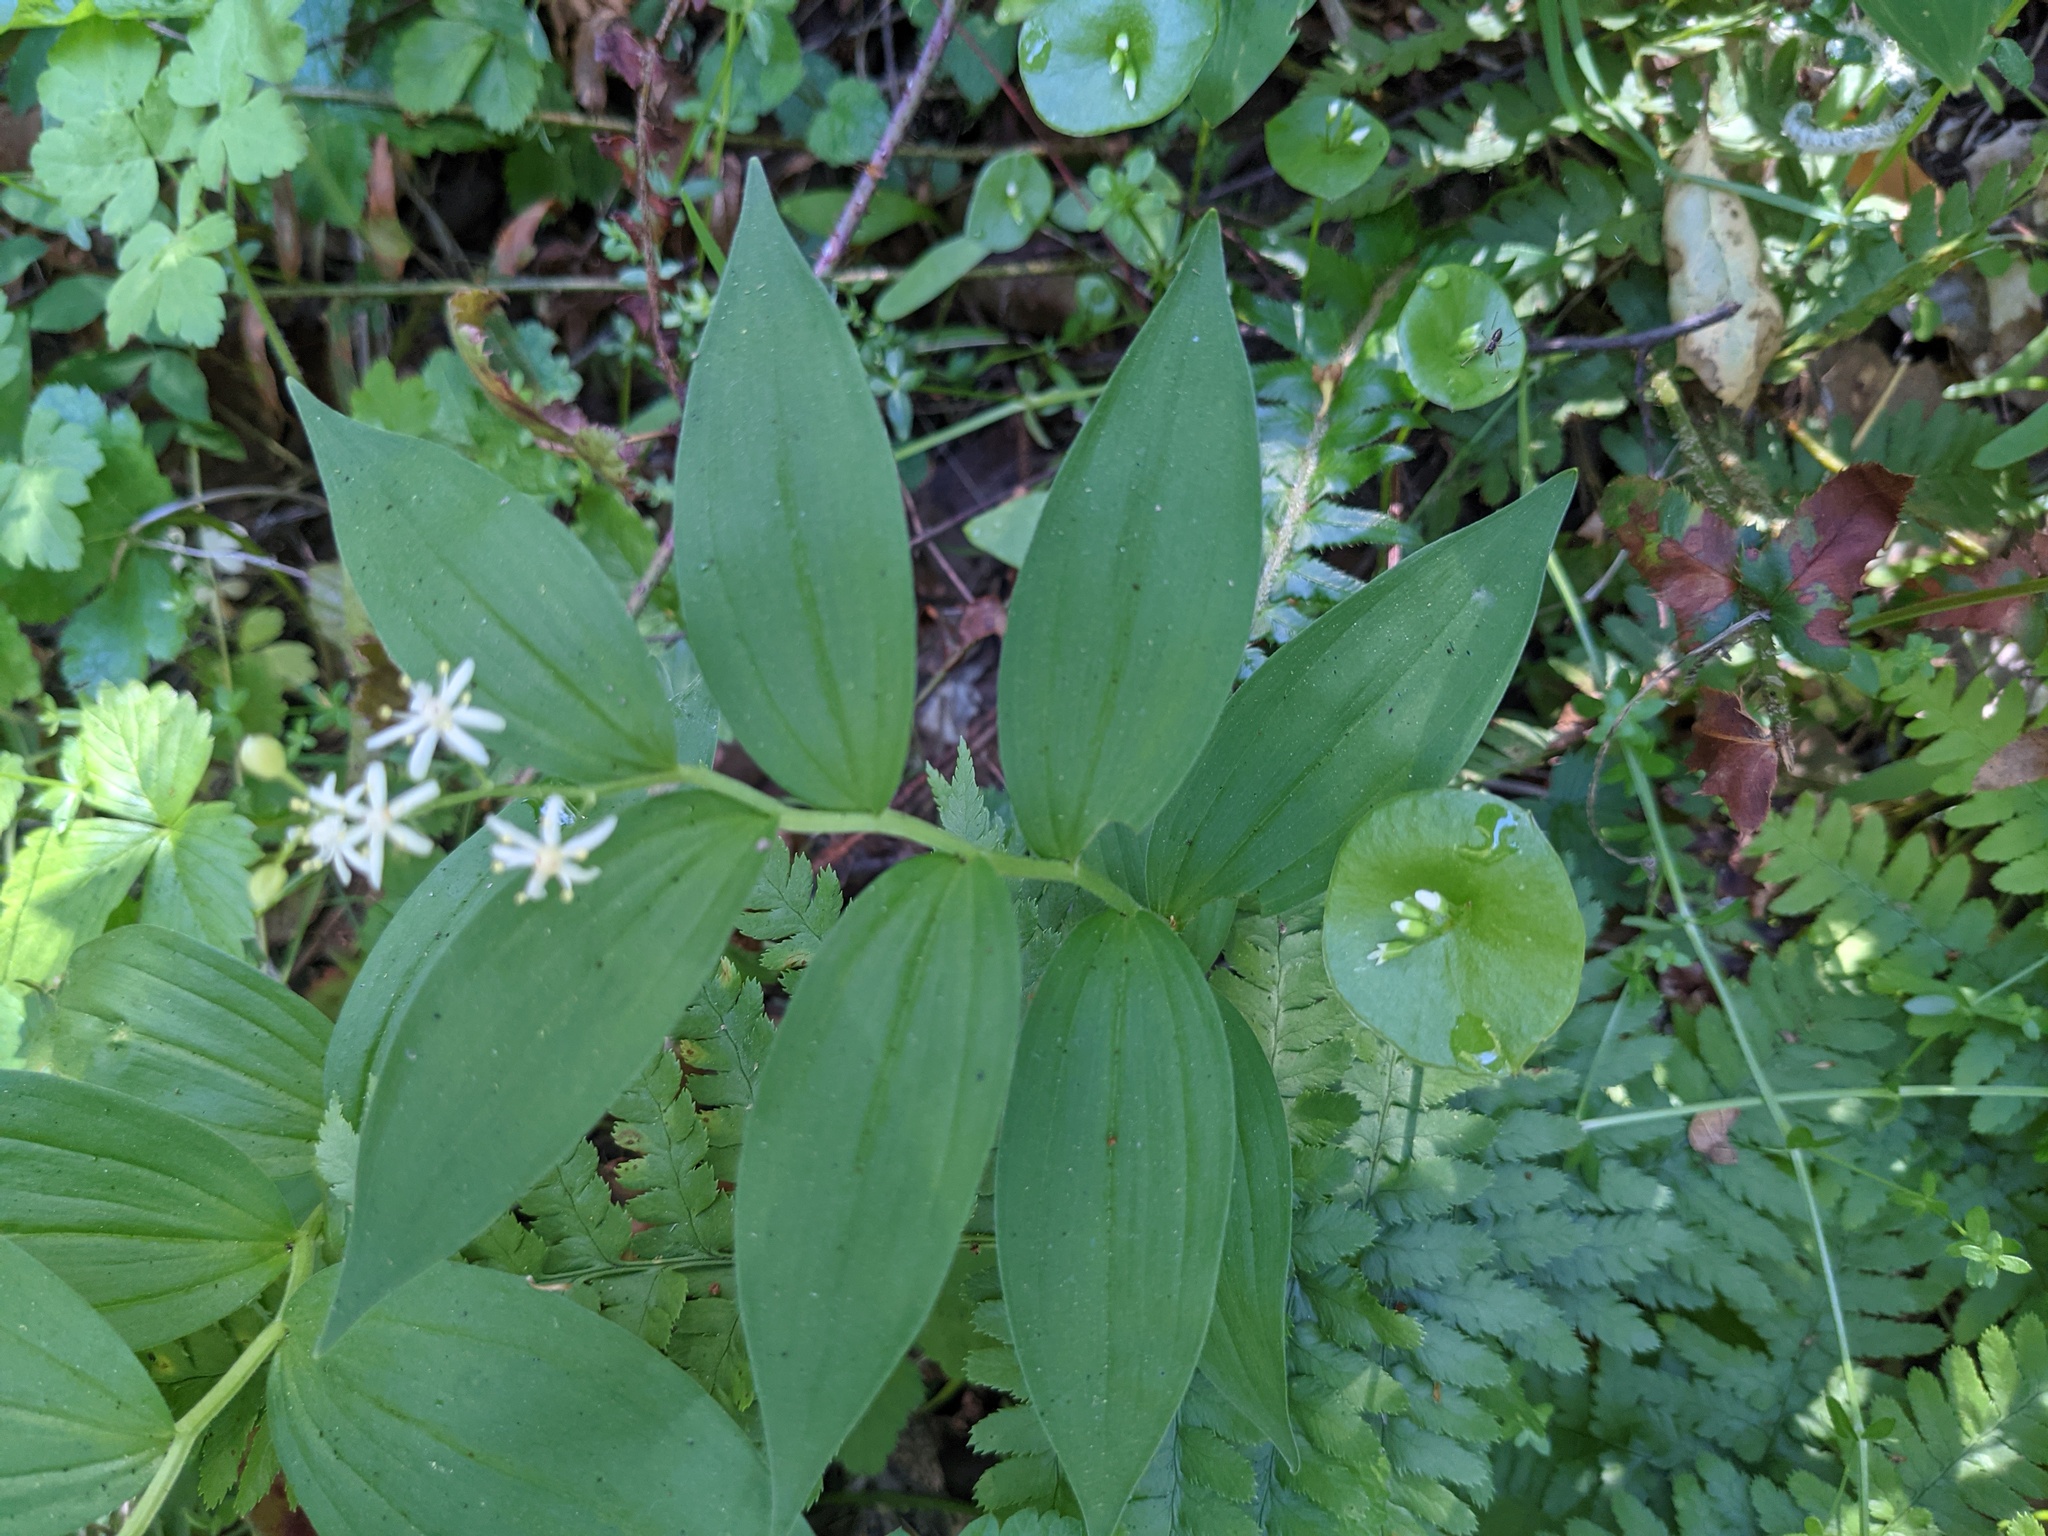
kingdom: Plantae
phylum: Tracheophyta
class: Liliopsida
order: Asparagales
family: Asparagaceae
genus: Maianthemum
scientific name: Maianthemum stellatum
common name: Little false solomon's seal
